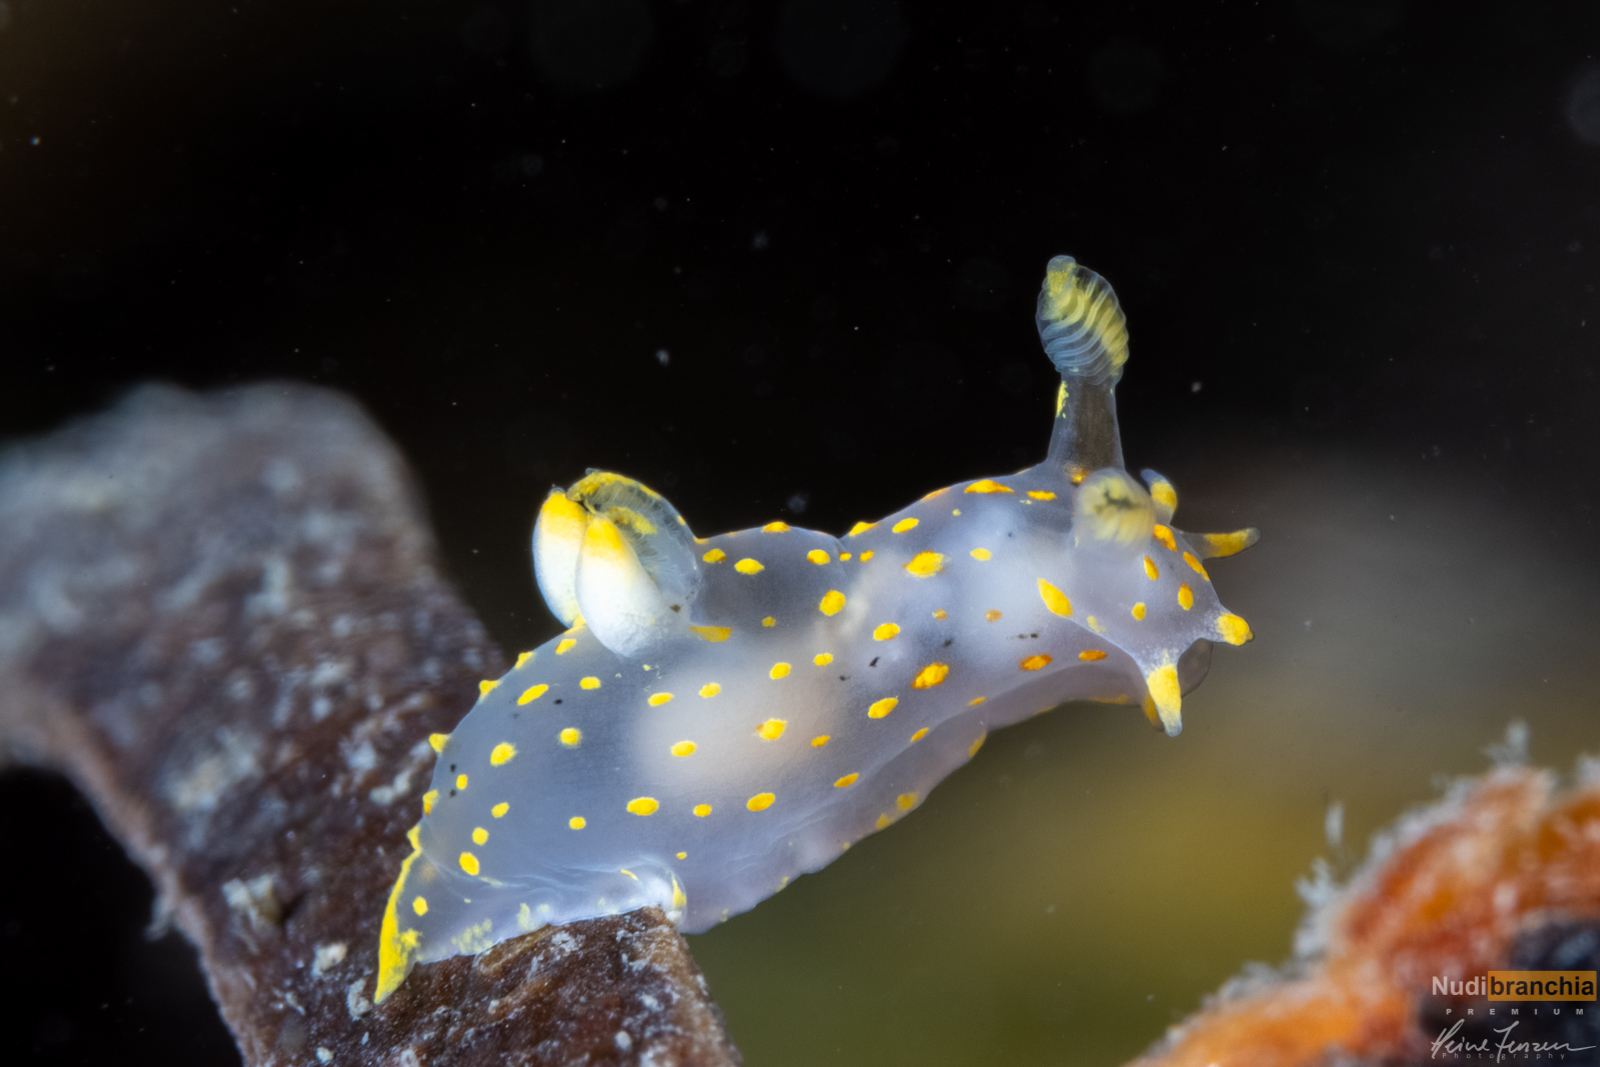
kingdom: Animalia
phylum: Mollusca
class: Gastropoda
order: Nudibranchia
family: Polyceridae
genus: Polycera
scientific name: Polycera norvegica
